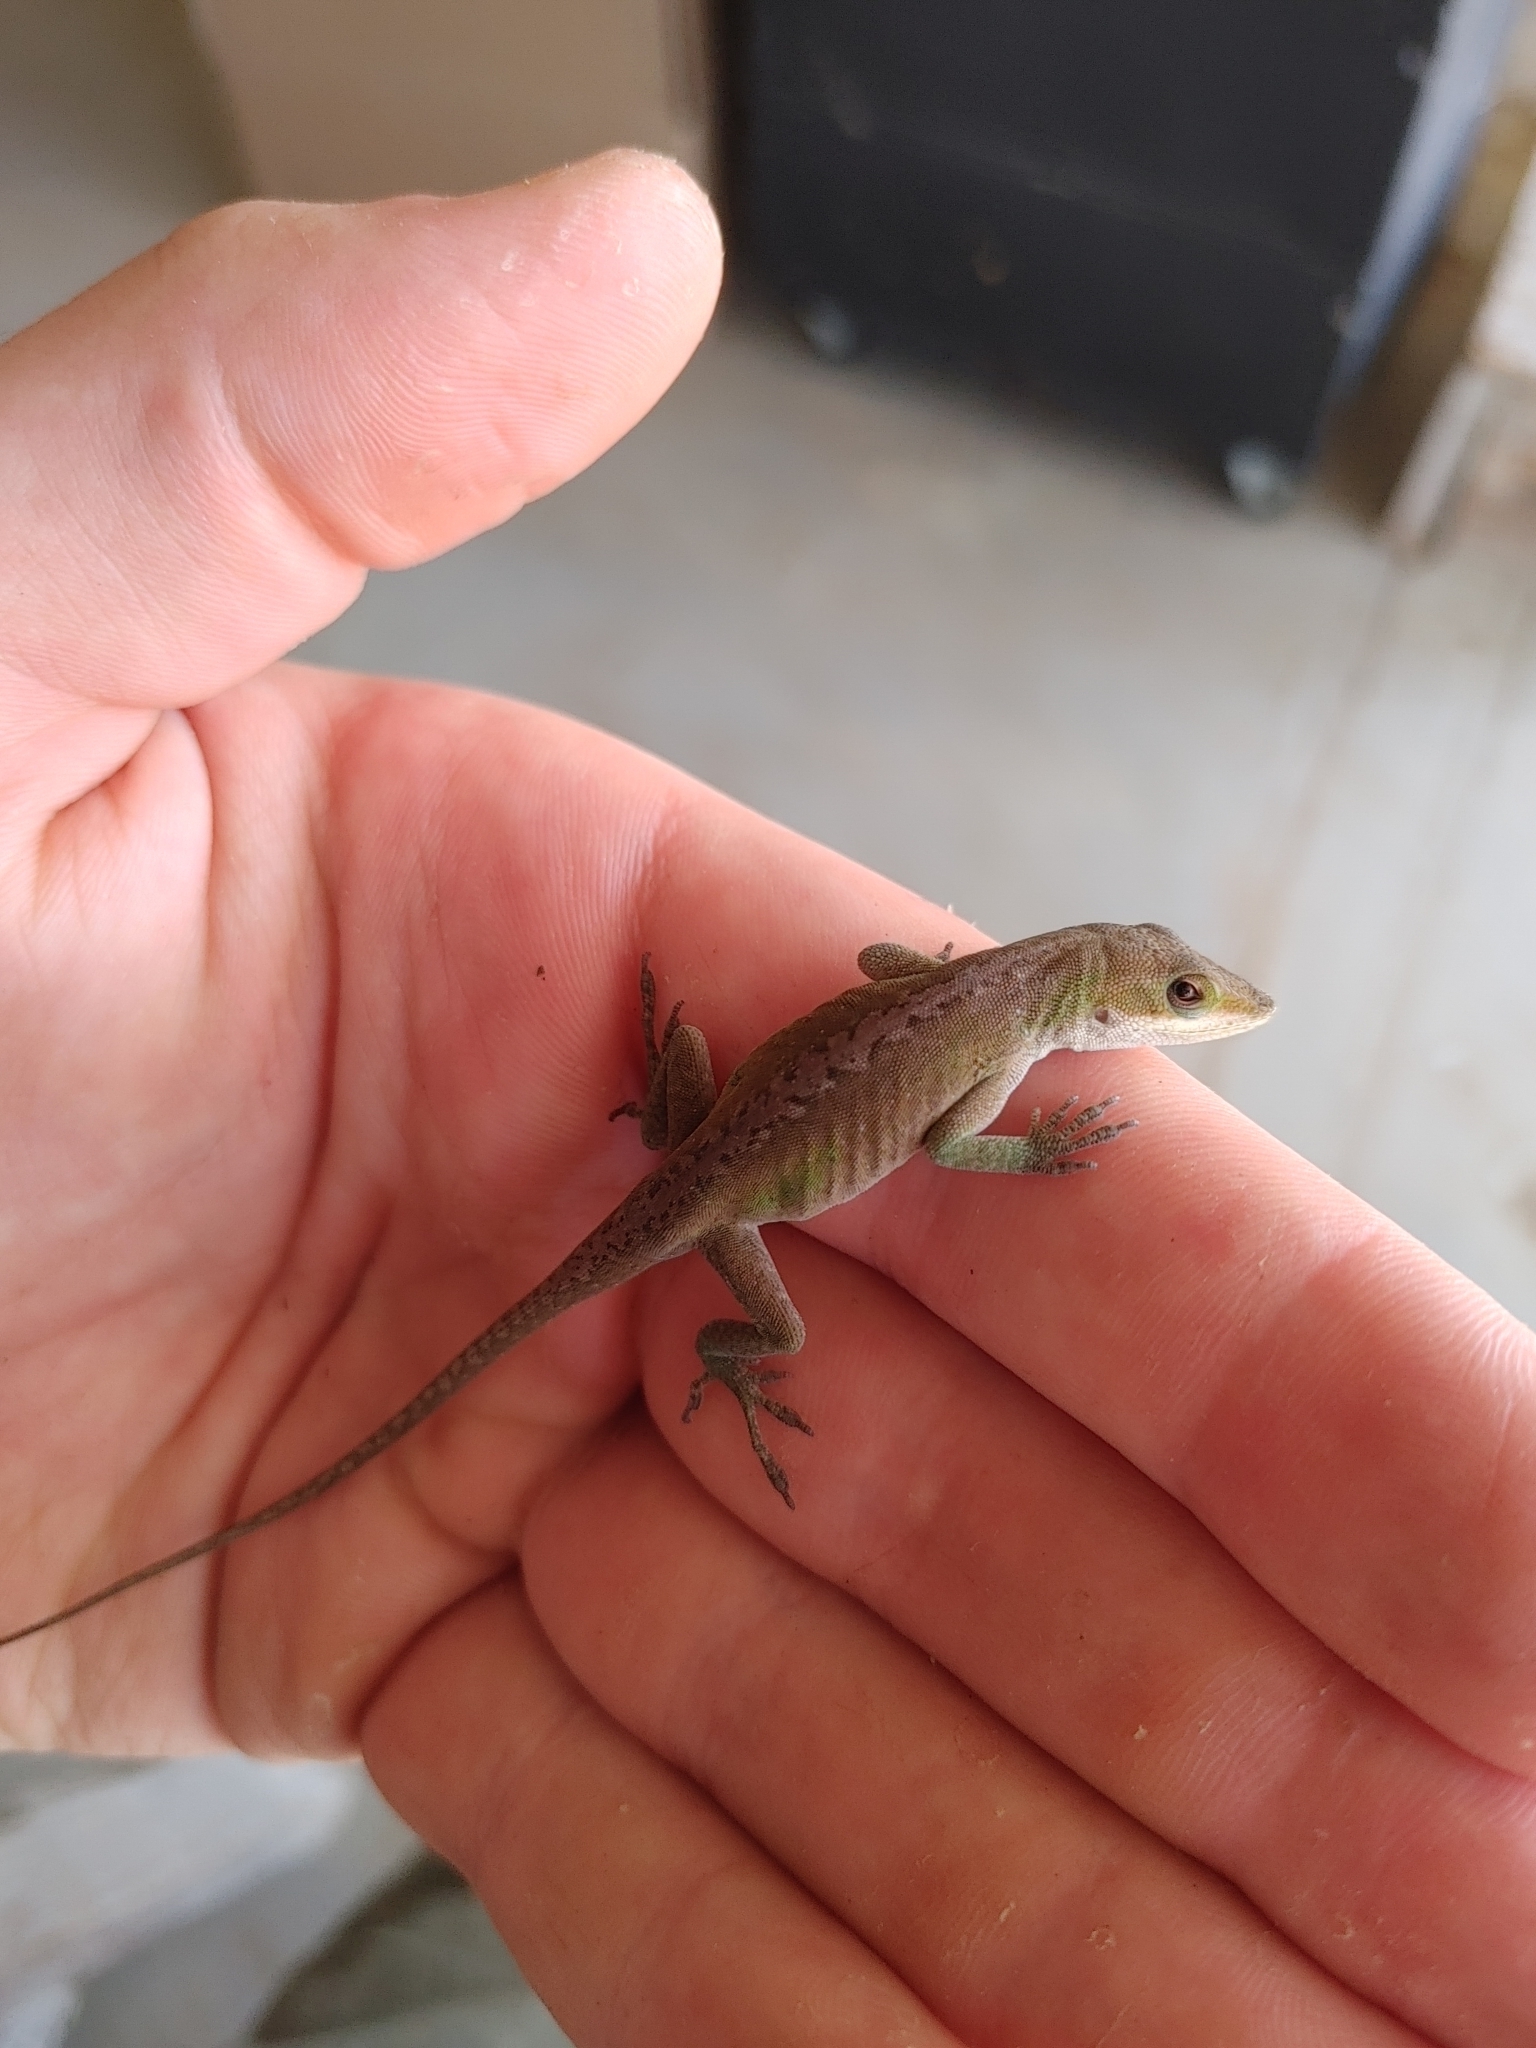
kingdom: Animalia
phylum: Chordata
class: Squamata
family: Dactyloidae
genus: Anolis
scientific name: Anolis carolinensis
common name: Green anole
